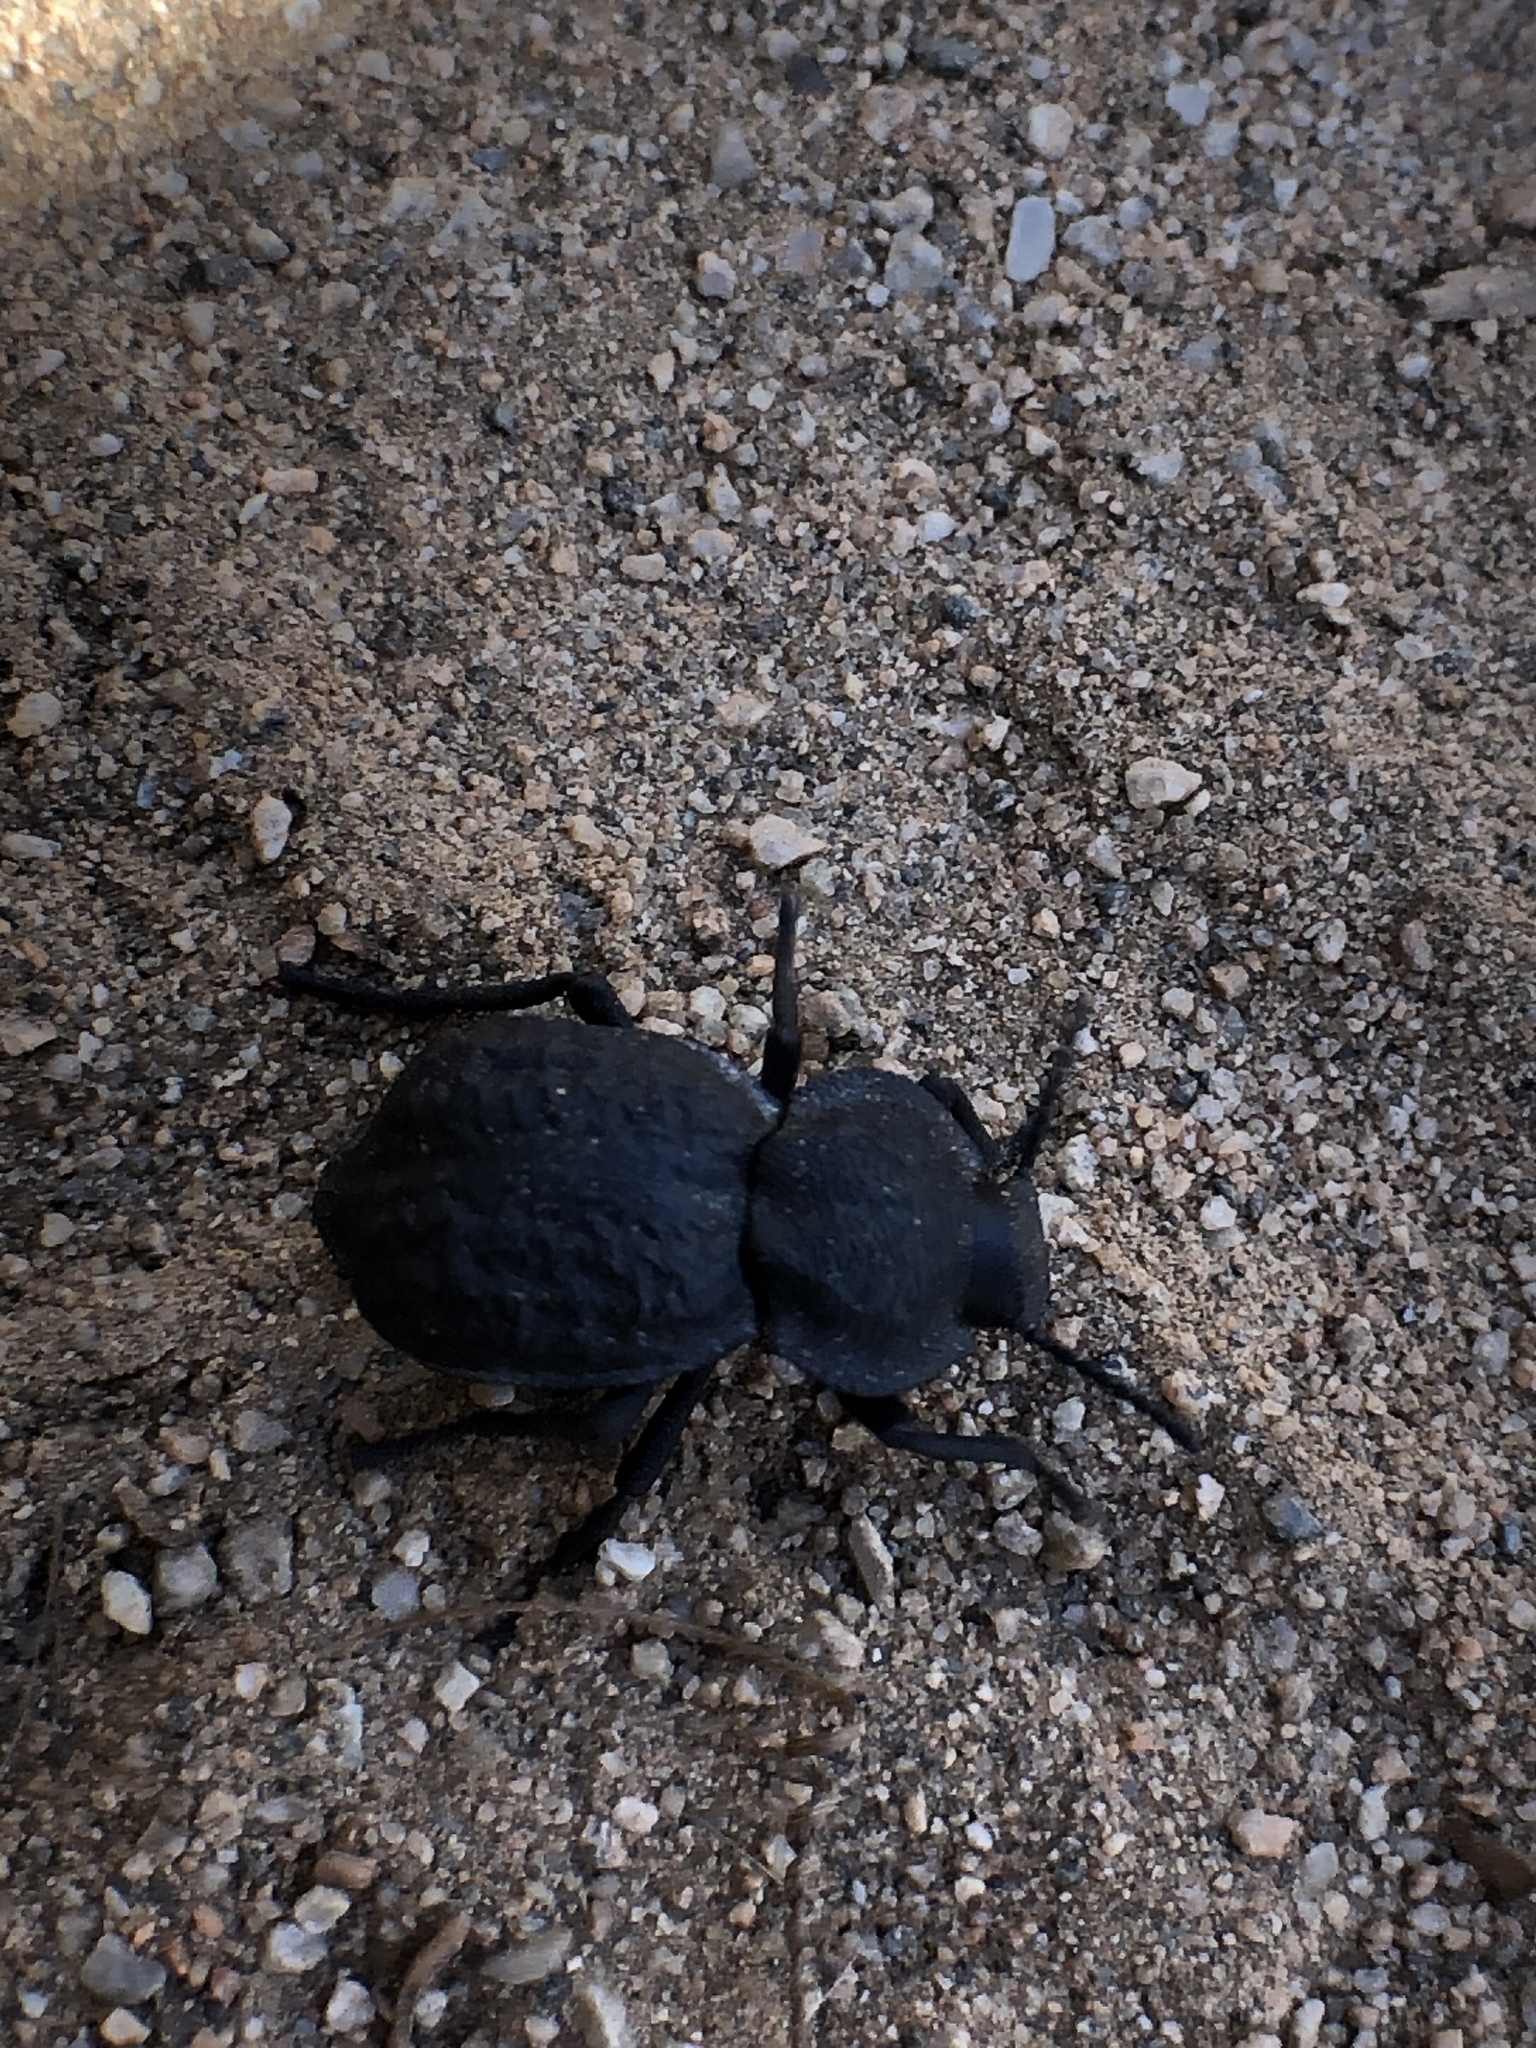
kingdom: Animalia
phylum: Arthropoda
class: Insecta
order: Coleoptera
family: Tenebrionidae
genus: Microschatia
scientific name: Microschatia inaequalis
